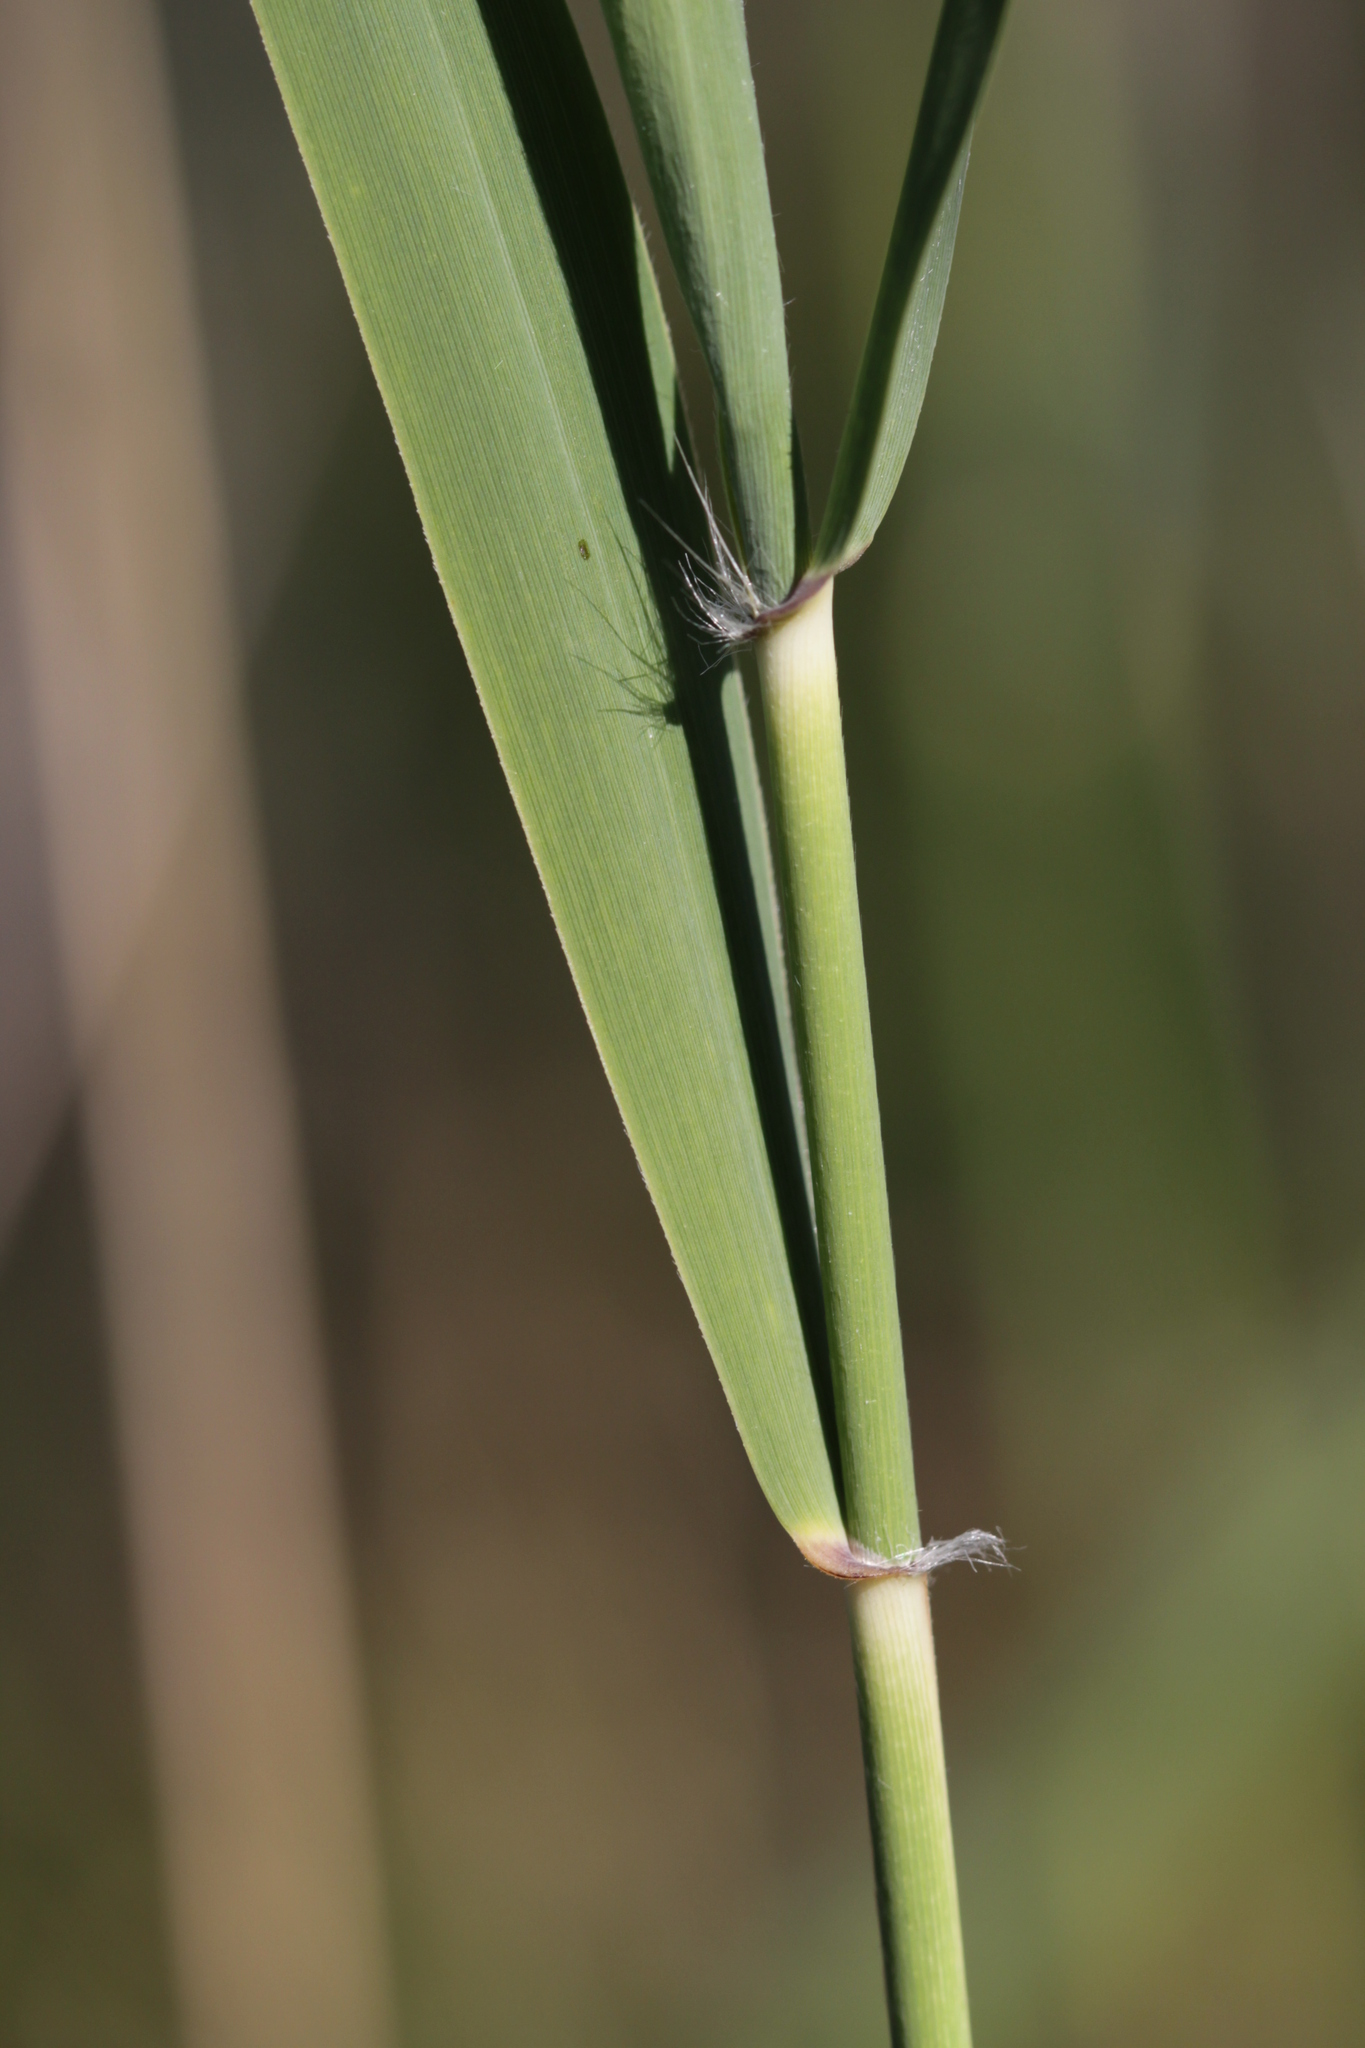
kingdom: Plantae
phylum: Tracheophyta
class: Liliopsida
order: Poales
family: Poaceae
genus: Phragmites
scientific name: Phragmites australis
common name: Common reed
